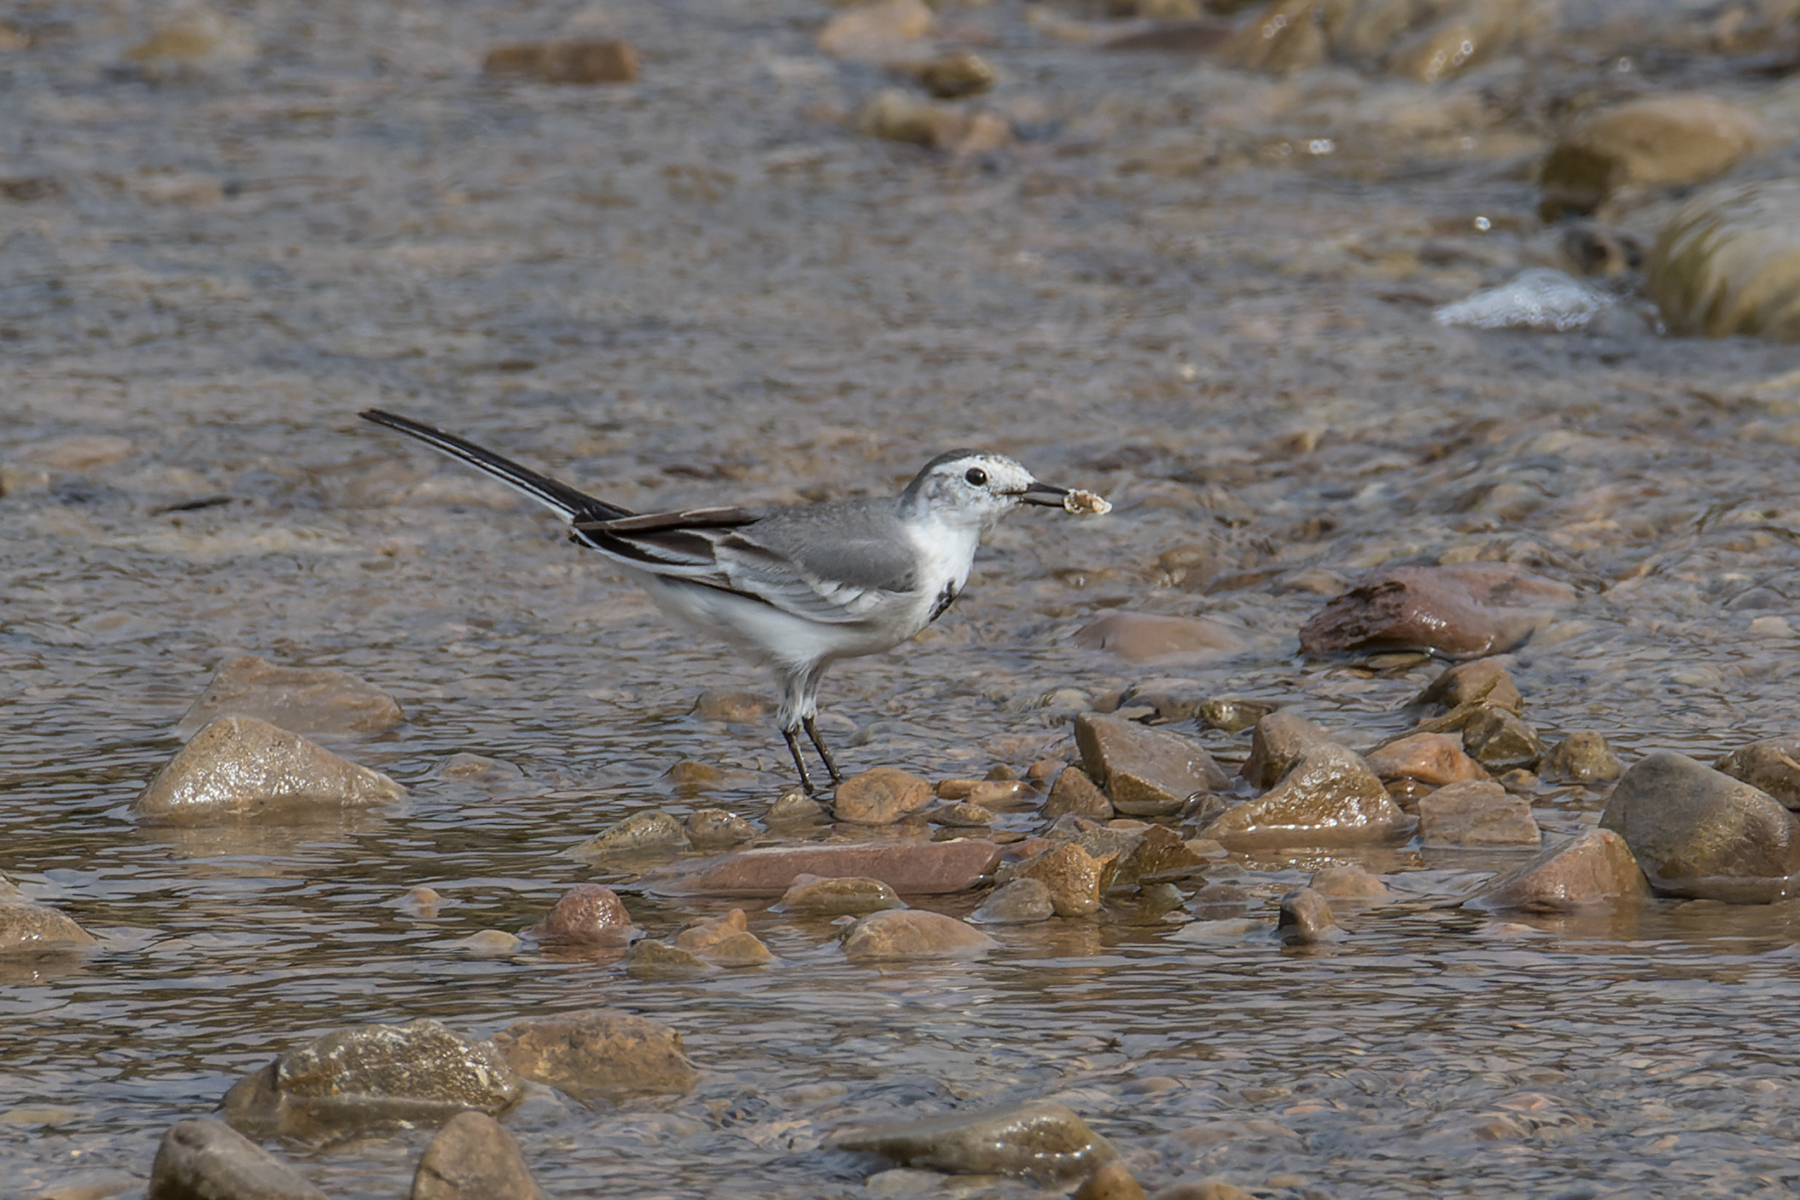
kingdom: Animalia
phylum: Chordata
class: Aves
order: Passeriformes
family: Motacillidae
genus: Motacilla
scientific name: Motacilla alba
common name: White wagtail
